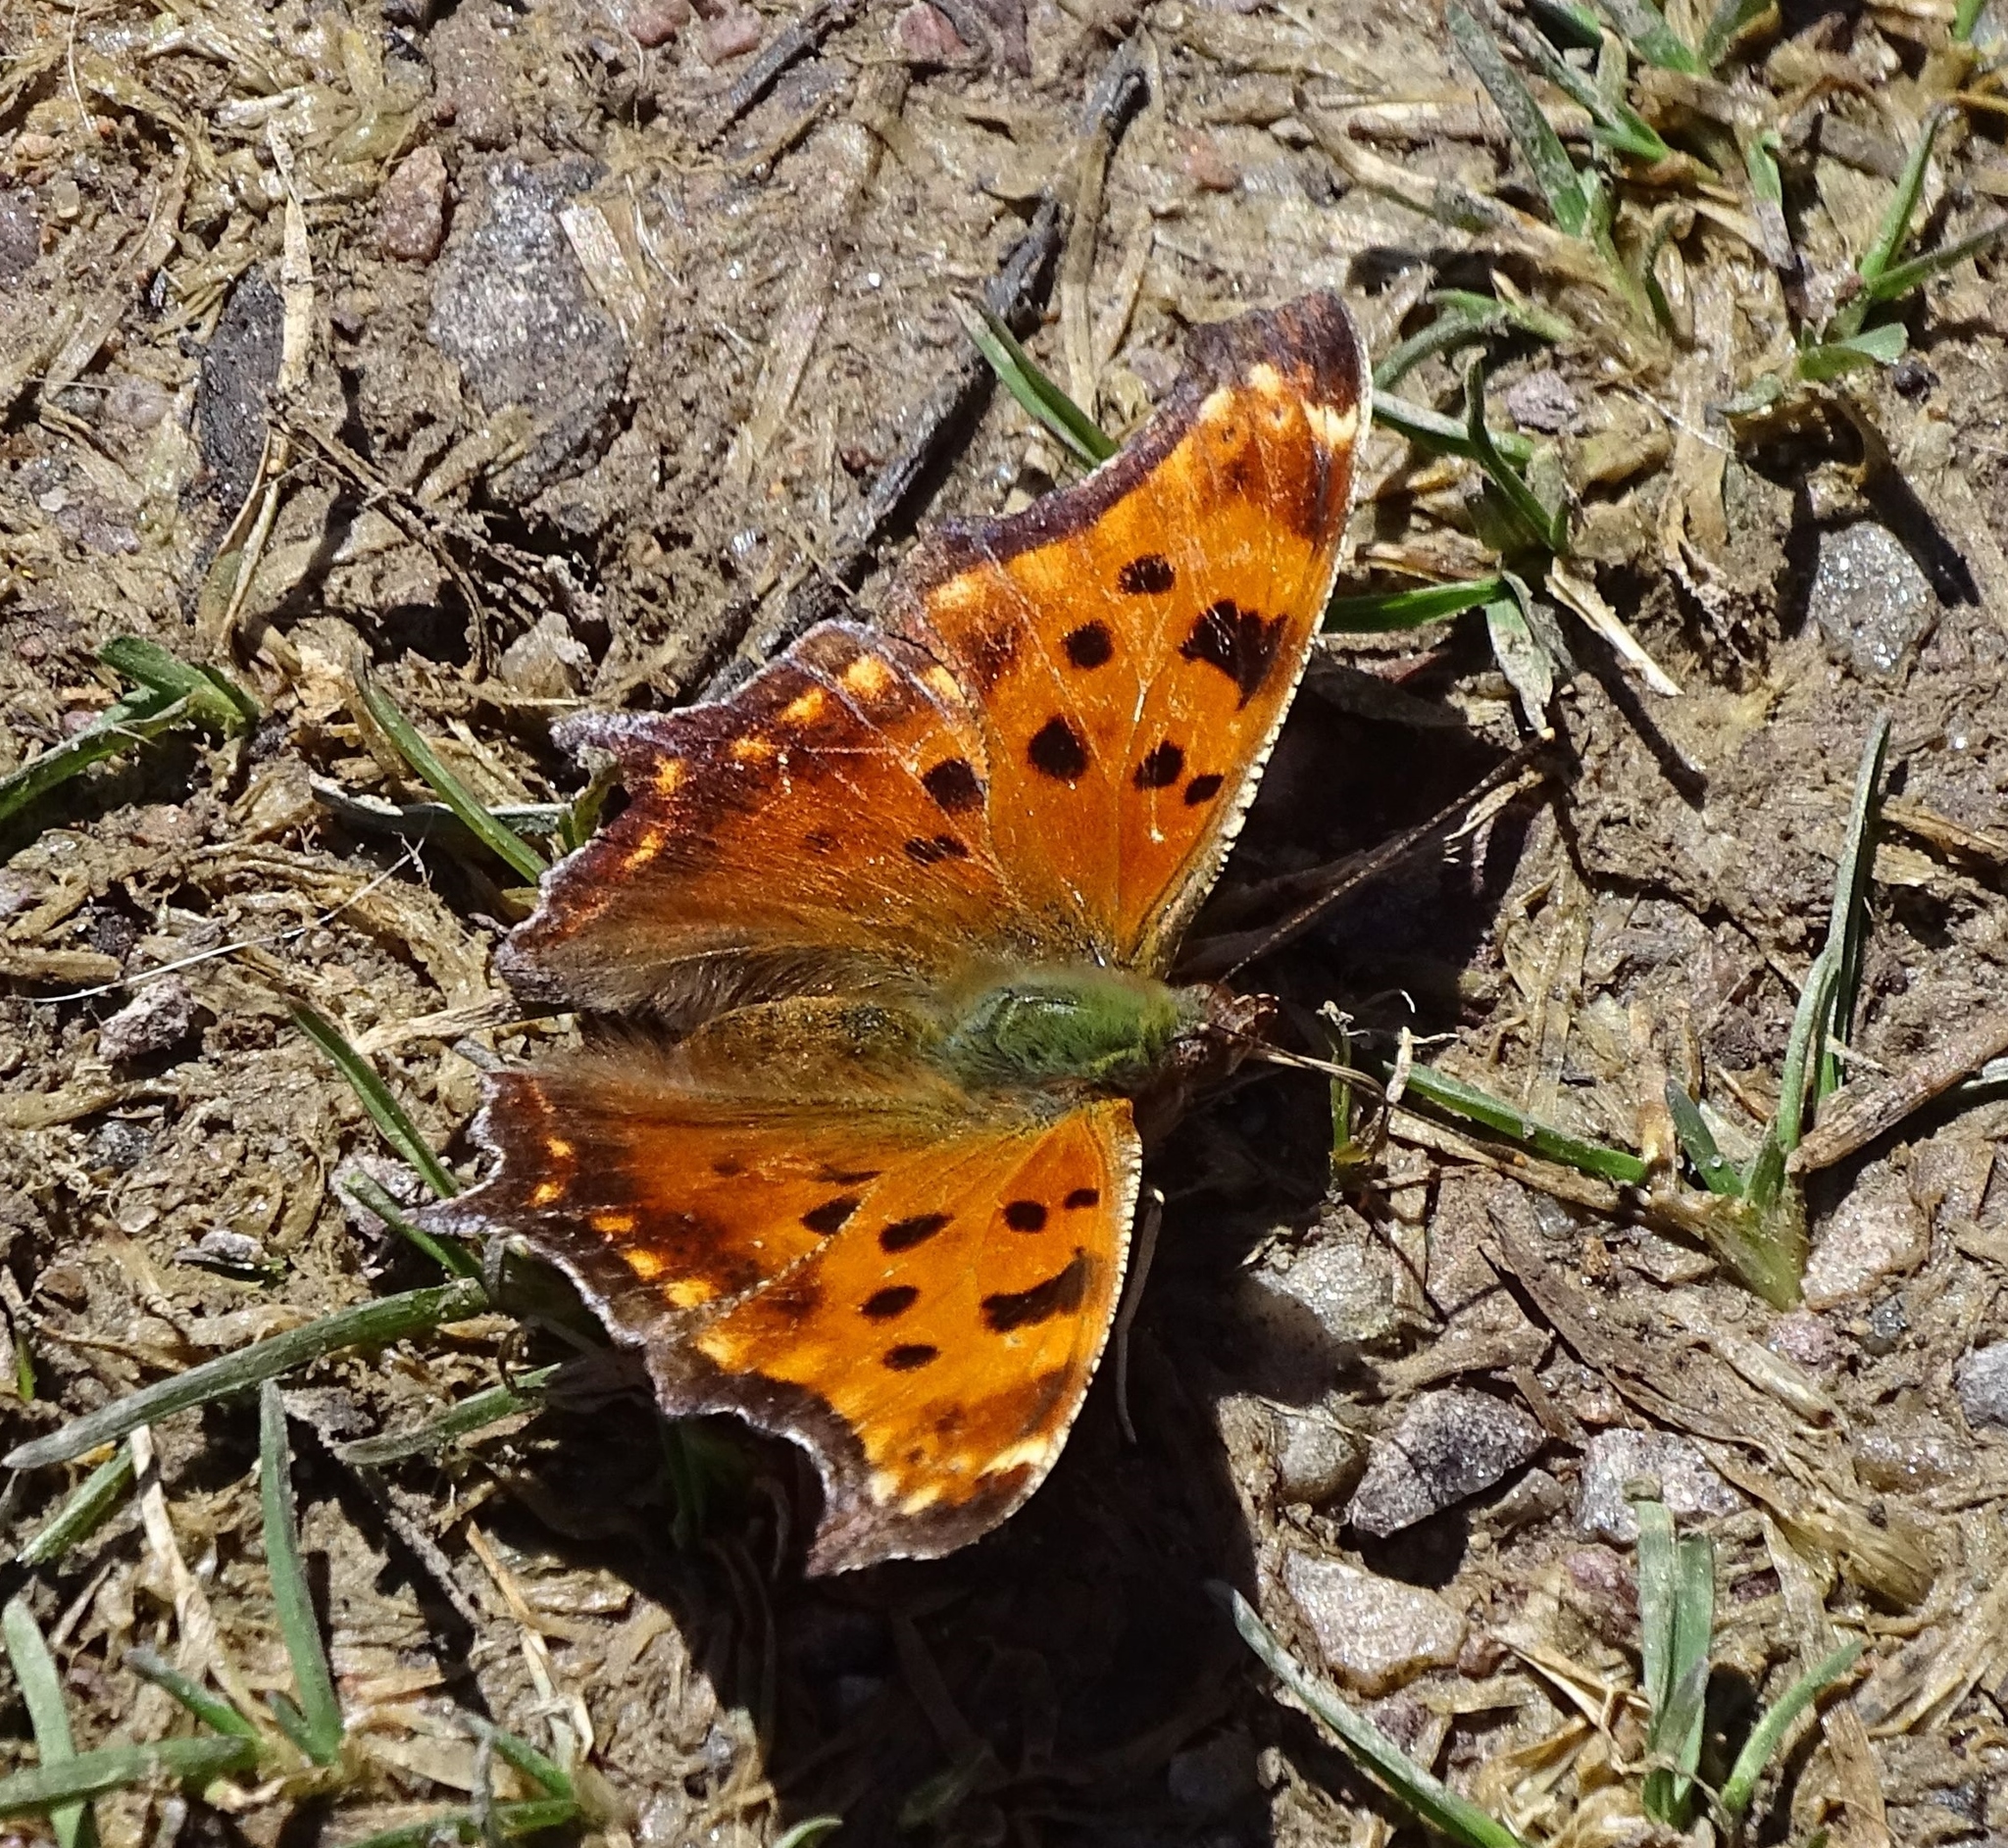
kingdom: Animalia
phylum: Arthropoda
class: Insecta
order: Lepidoptera
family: Nymphalidae
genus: Polygonia
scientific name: Polygonia comma
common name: Eastern comma
